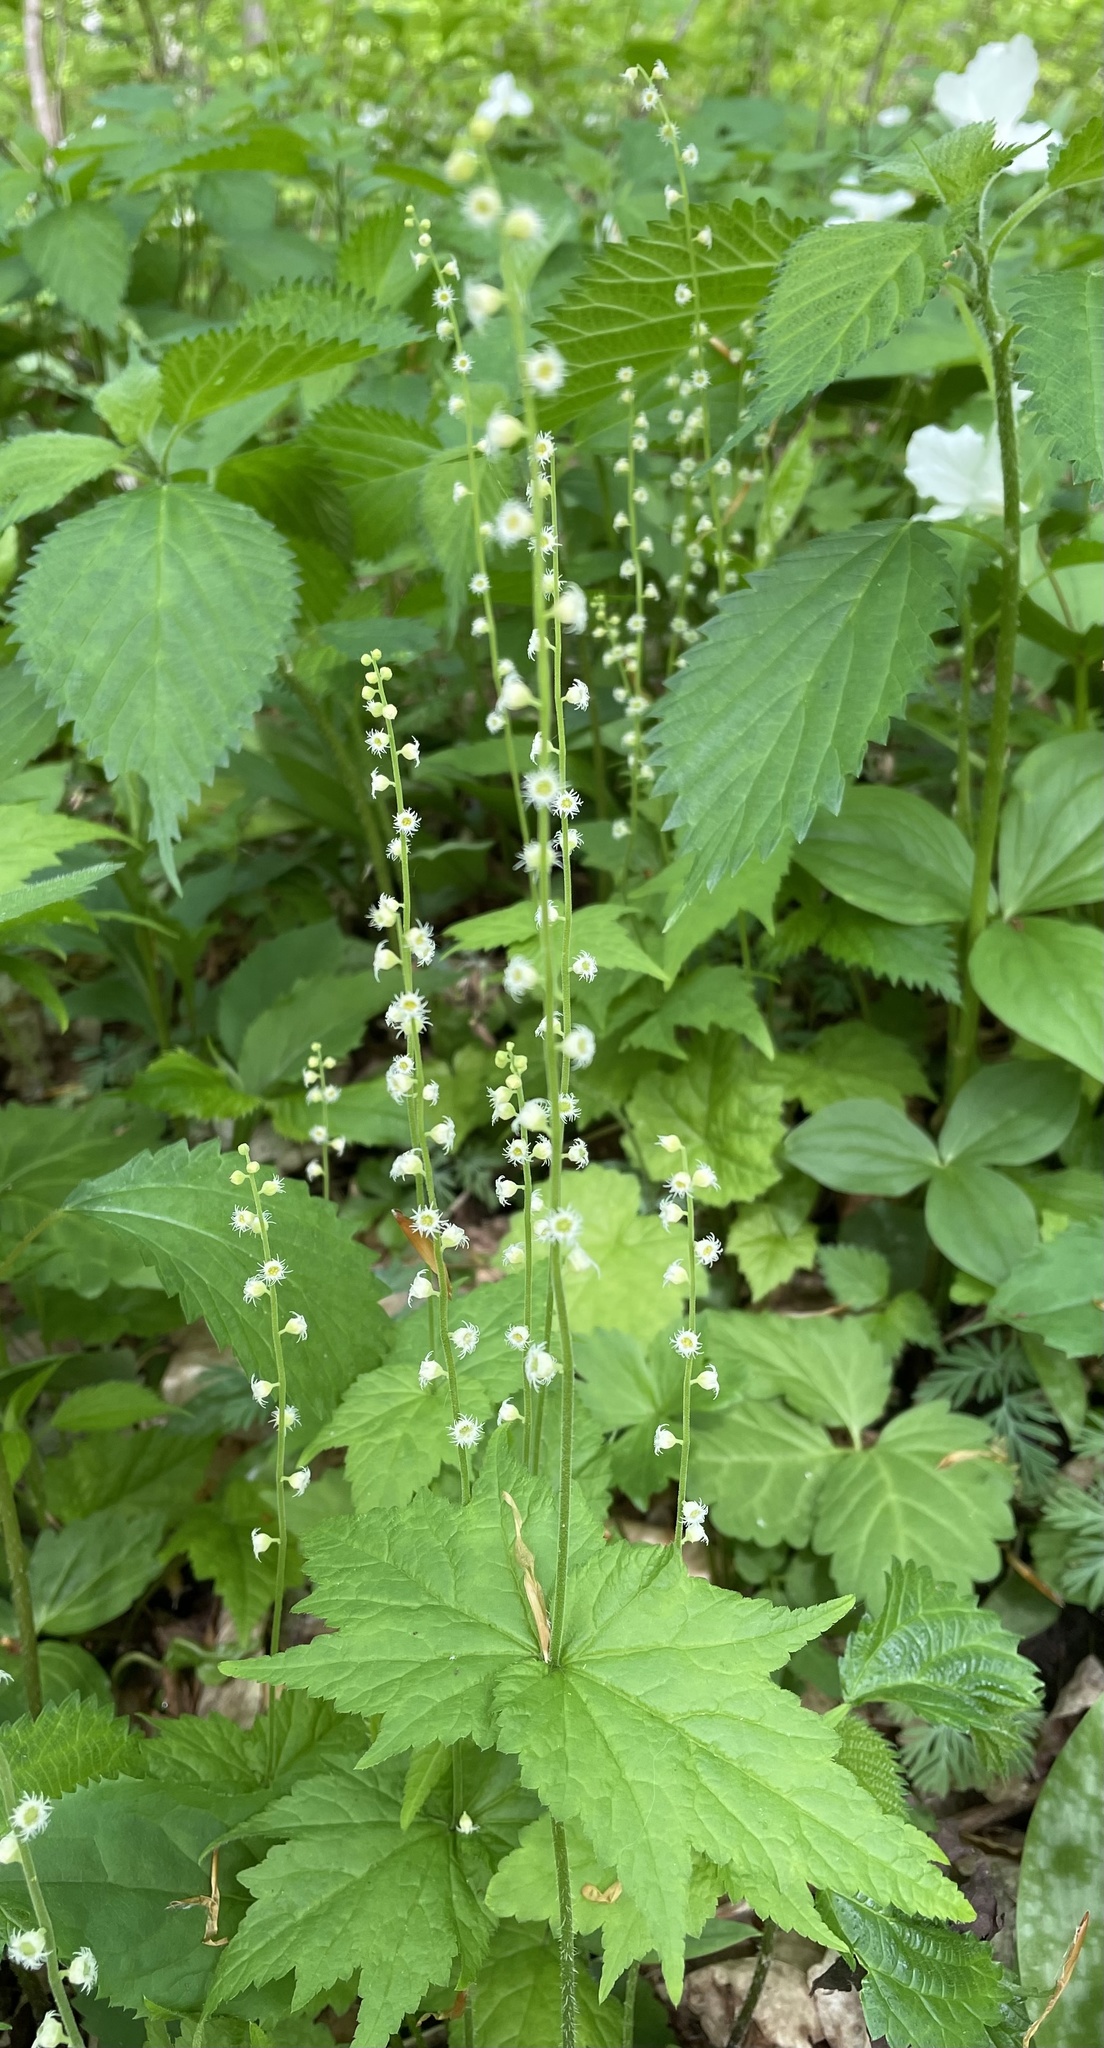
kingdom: Plantae
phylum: Tracheophyta
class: Magnoliopsida
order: Saxifragales
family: Saxifragaceae
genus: Mitella
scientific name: Mitella diphylla
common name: Coolwort
